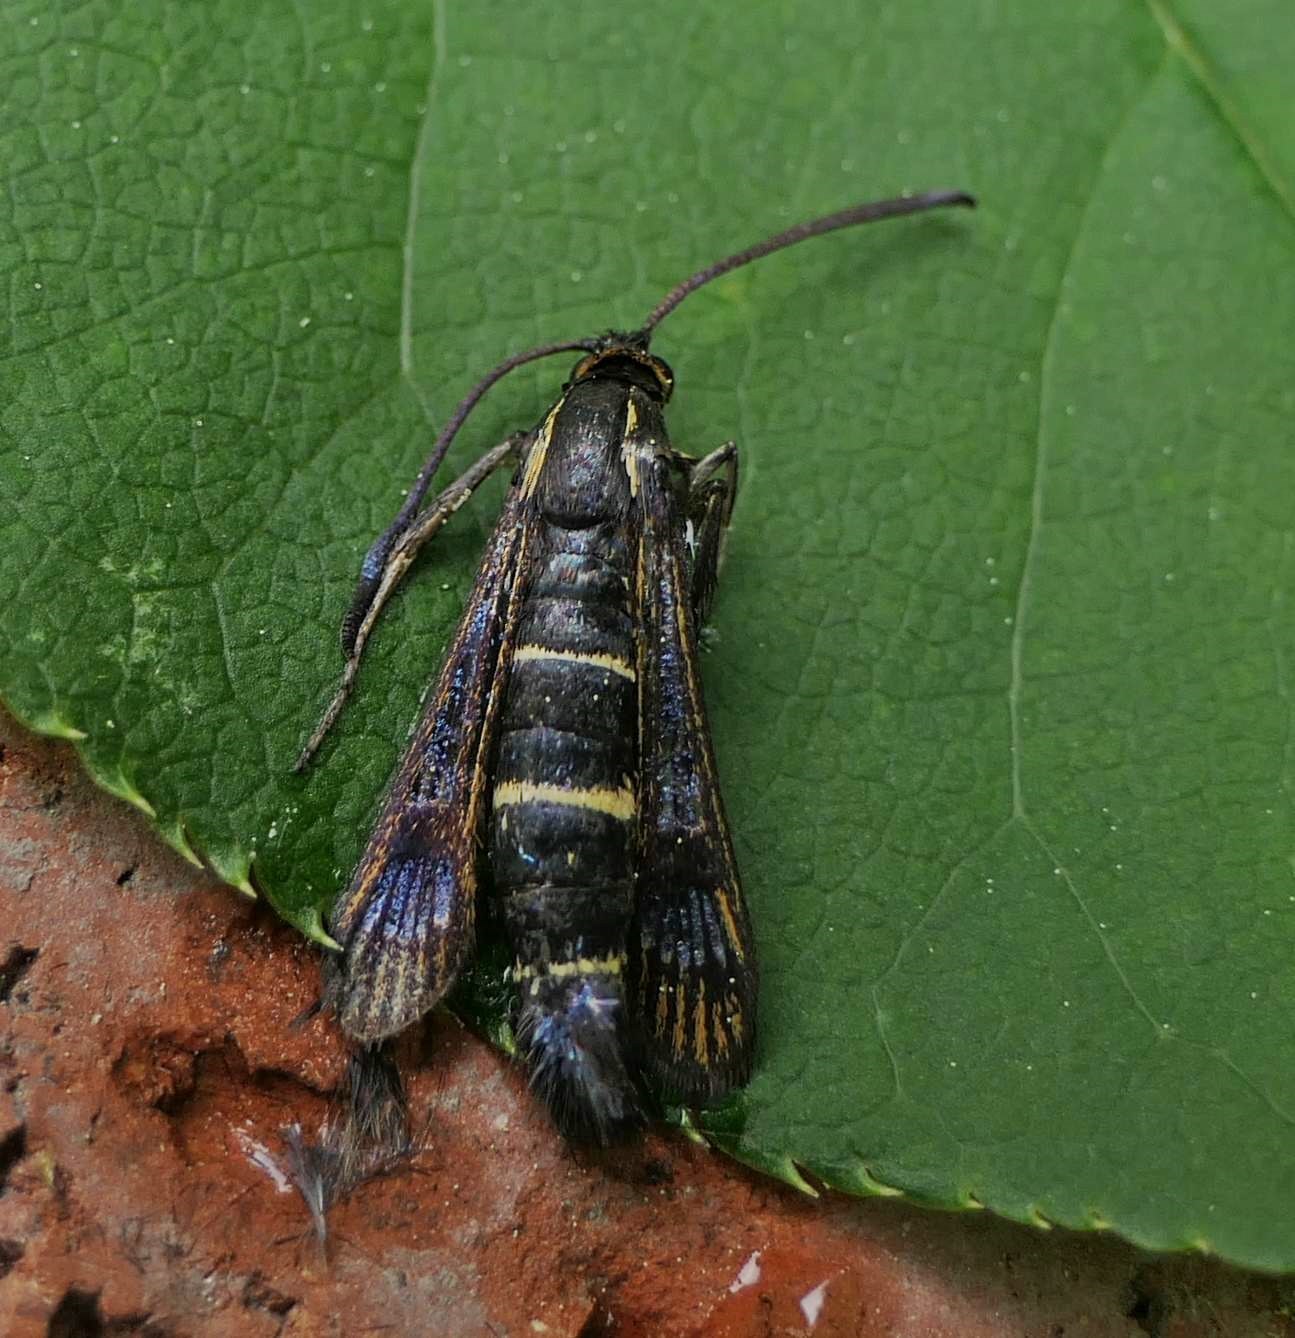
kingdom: Animalia
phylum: Arthropoda
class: Insecta
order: Lepidoptera
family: Sesiidae
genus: Synanthedon
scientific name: Synanthedon tipuliformis
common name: Currant clearwing
